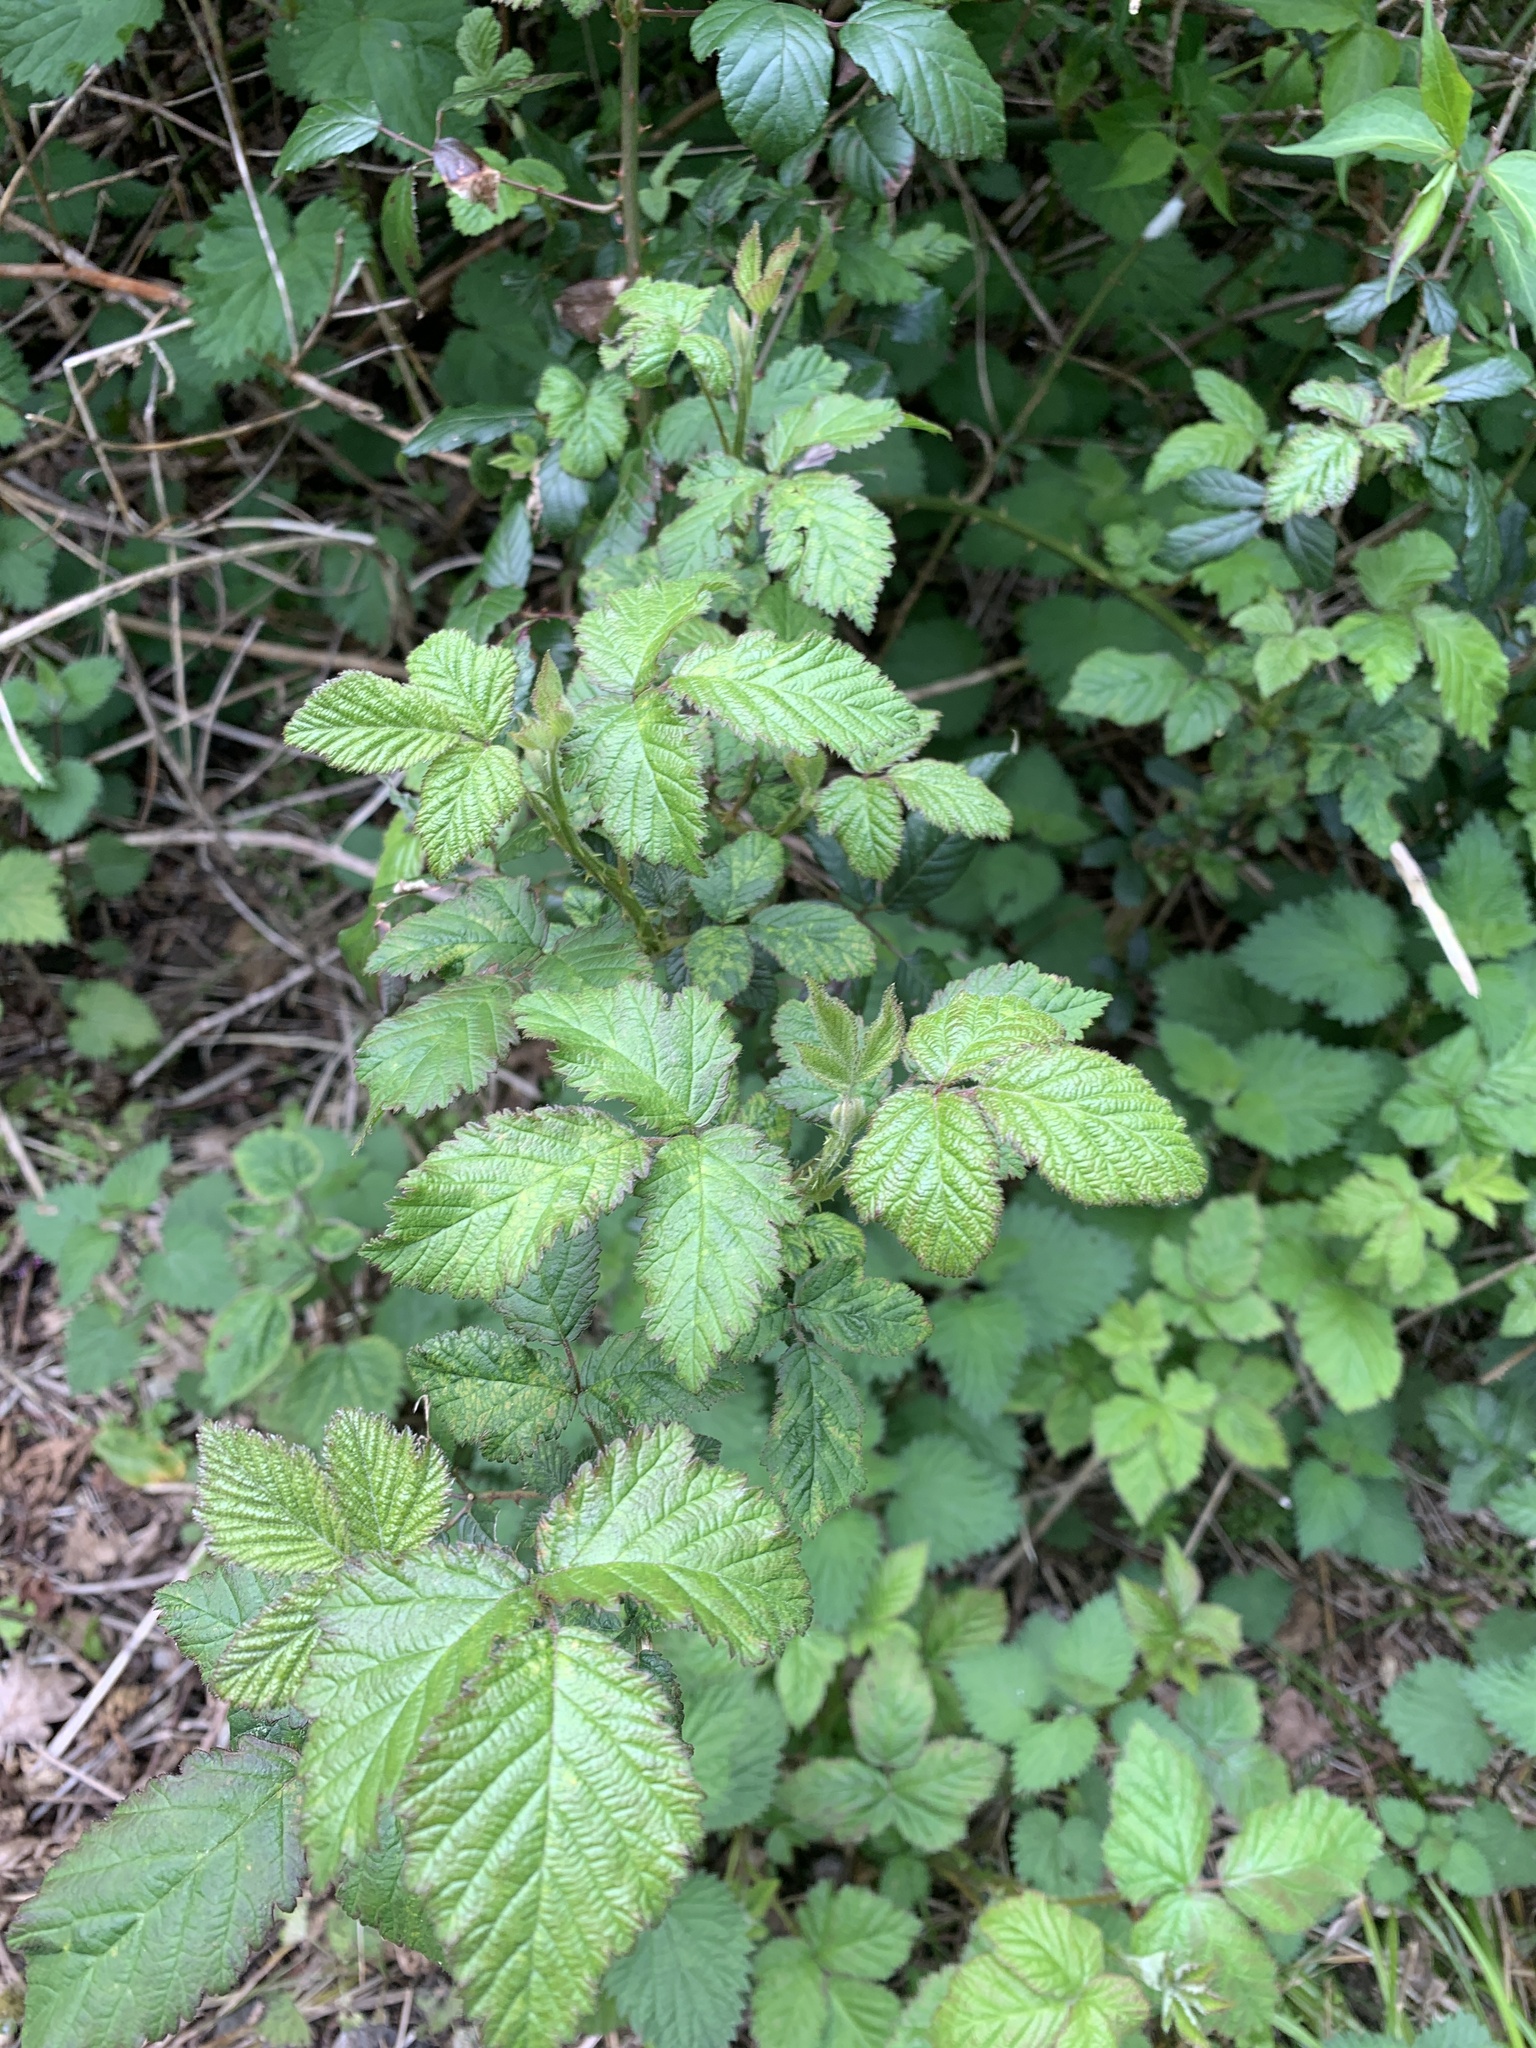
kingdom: Plantae
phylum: Tracheophyta
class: Magnoliopsida
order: Rosales
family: Rosaceae
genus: Rubus
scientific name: Rubus fruticosus
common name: Blackberry, bramble
